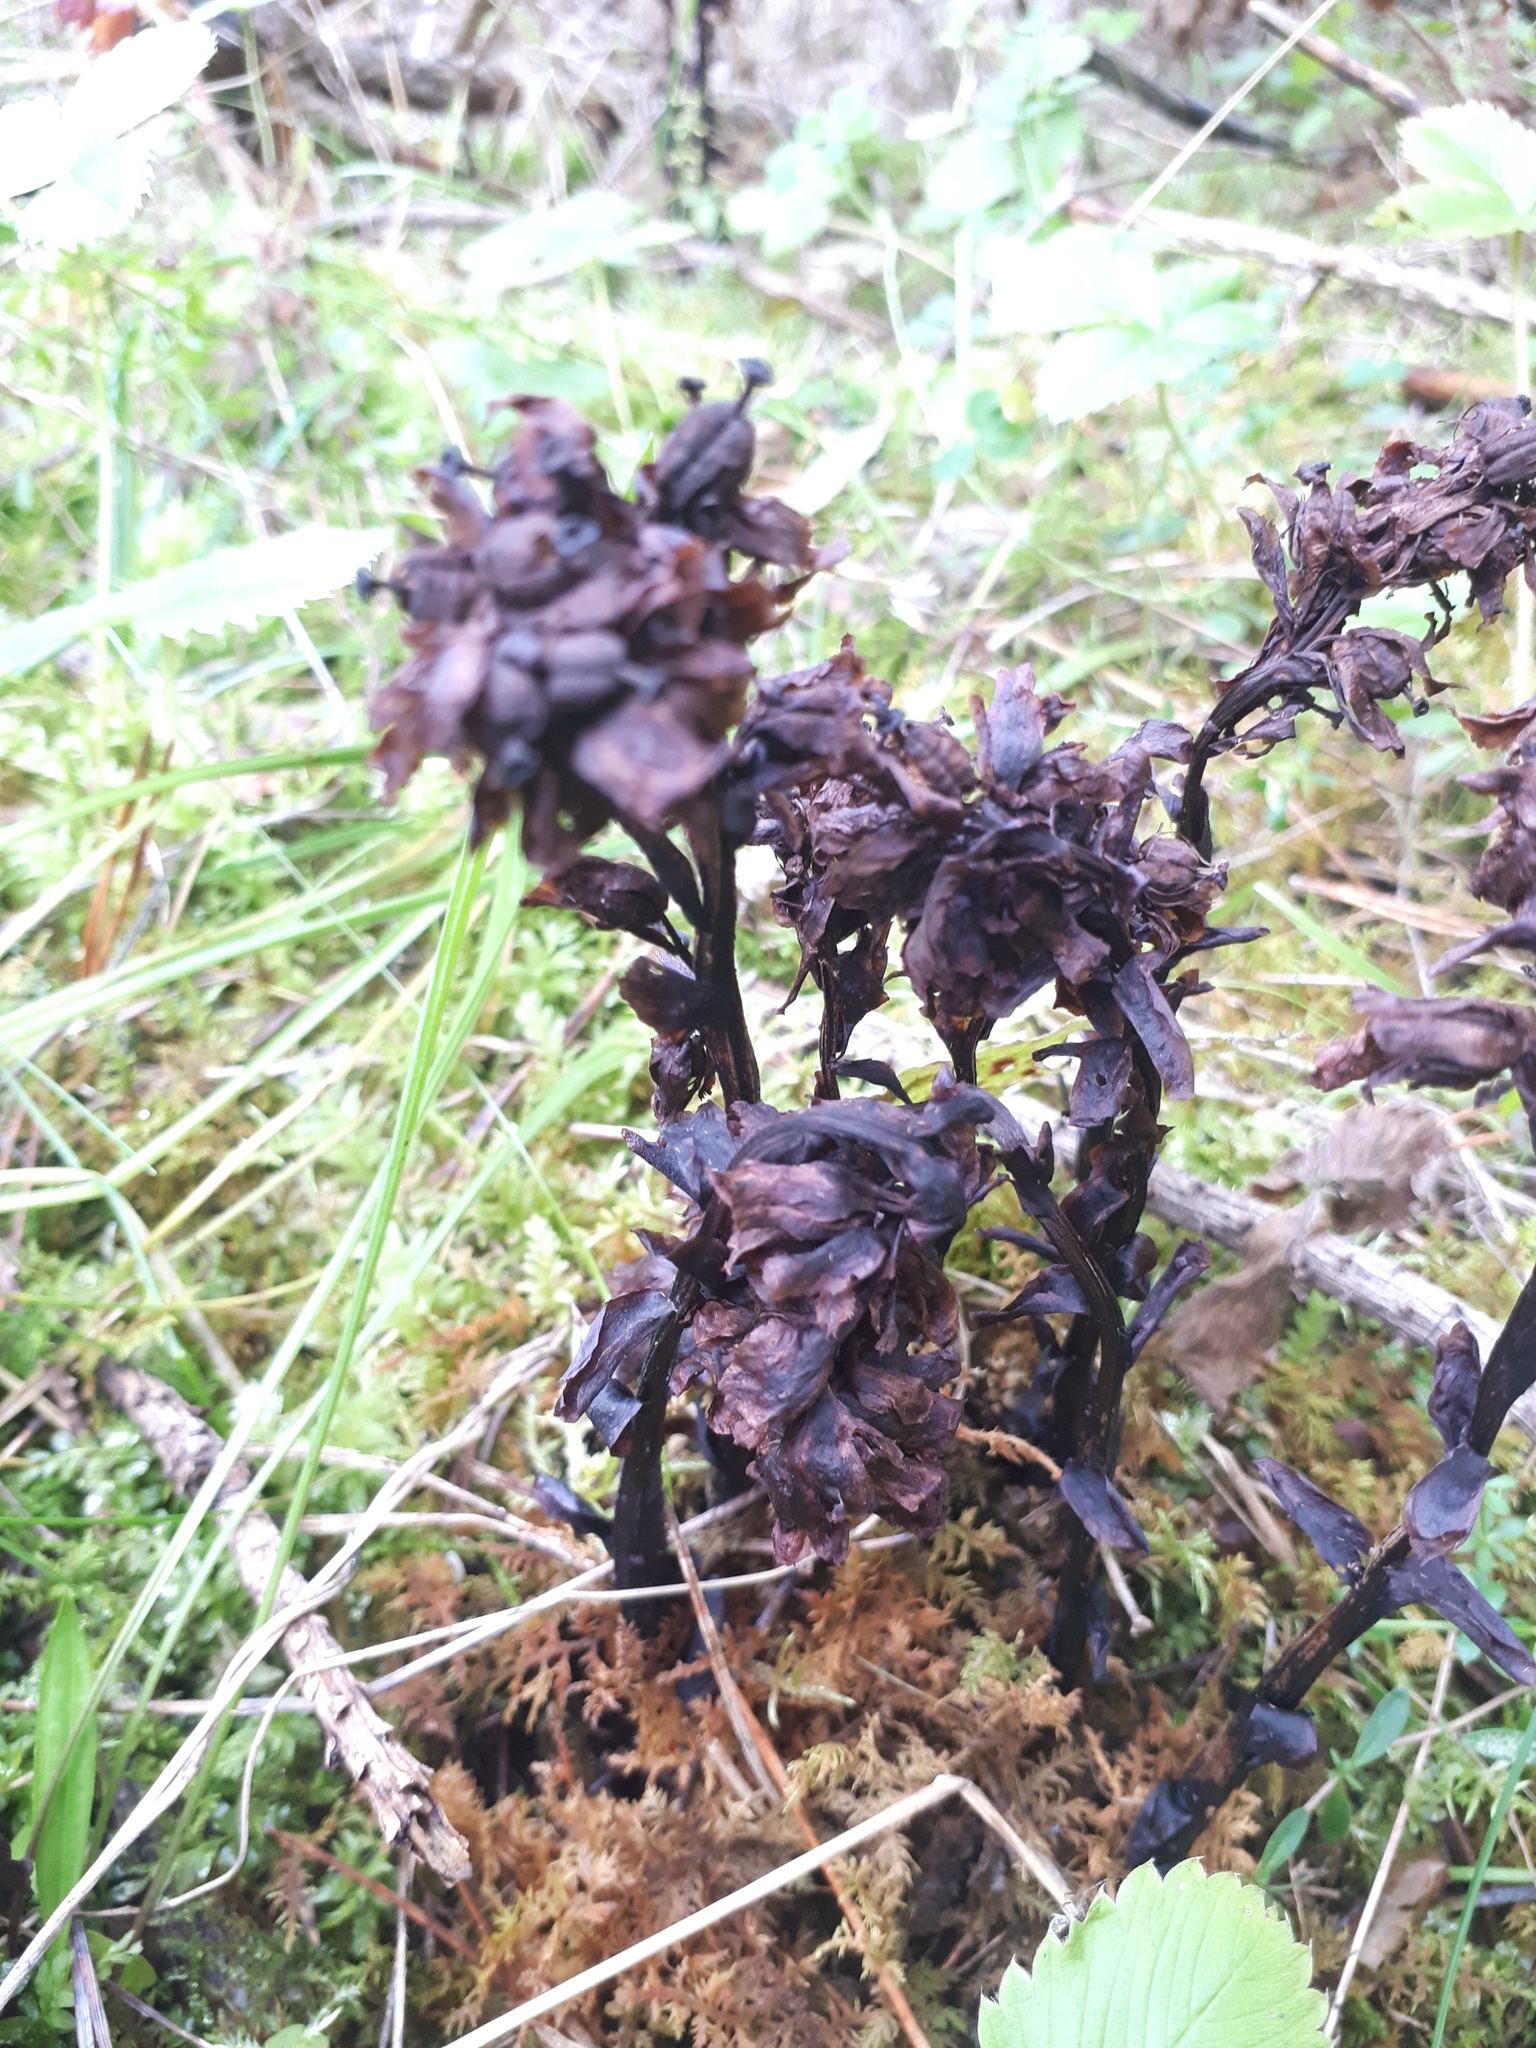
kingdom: Plantae
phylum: Tracheophyta
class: Magnoliopsida
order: Ericales
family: Ericaceae
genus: Hypopitys
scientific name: Hypopitys monotropa
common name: Yellow bird's-nest
